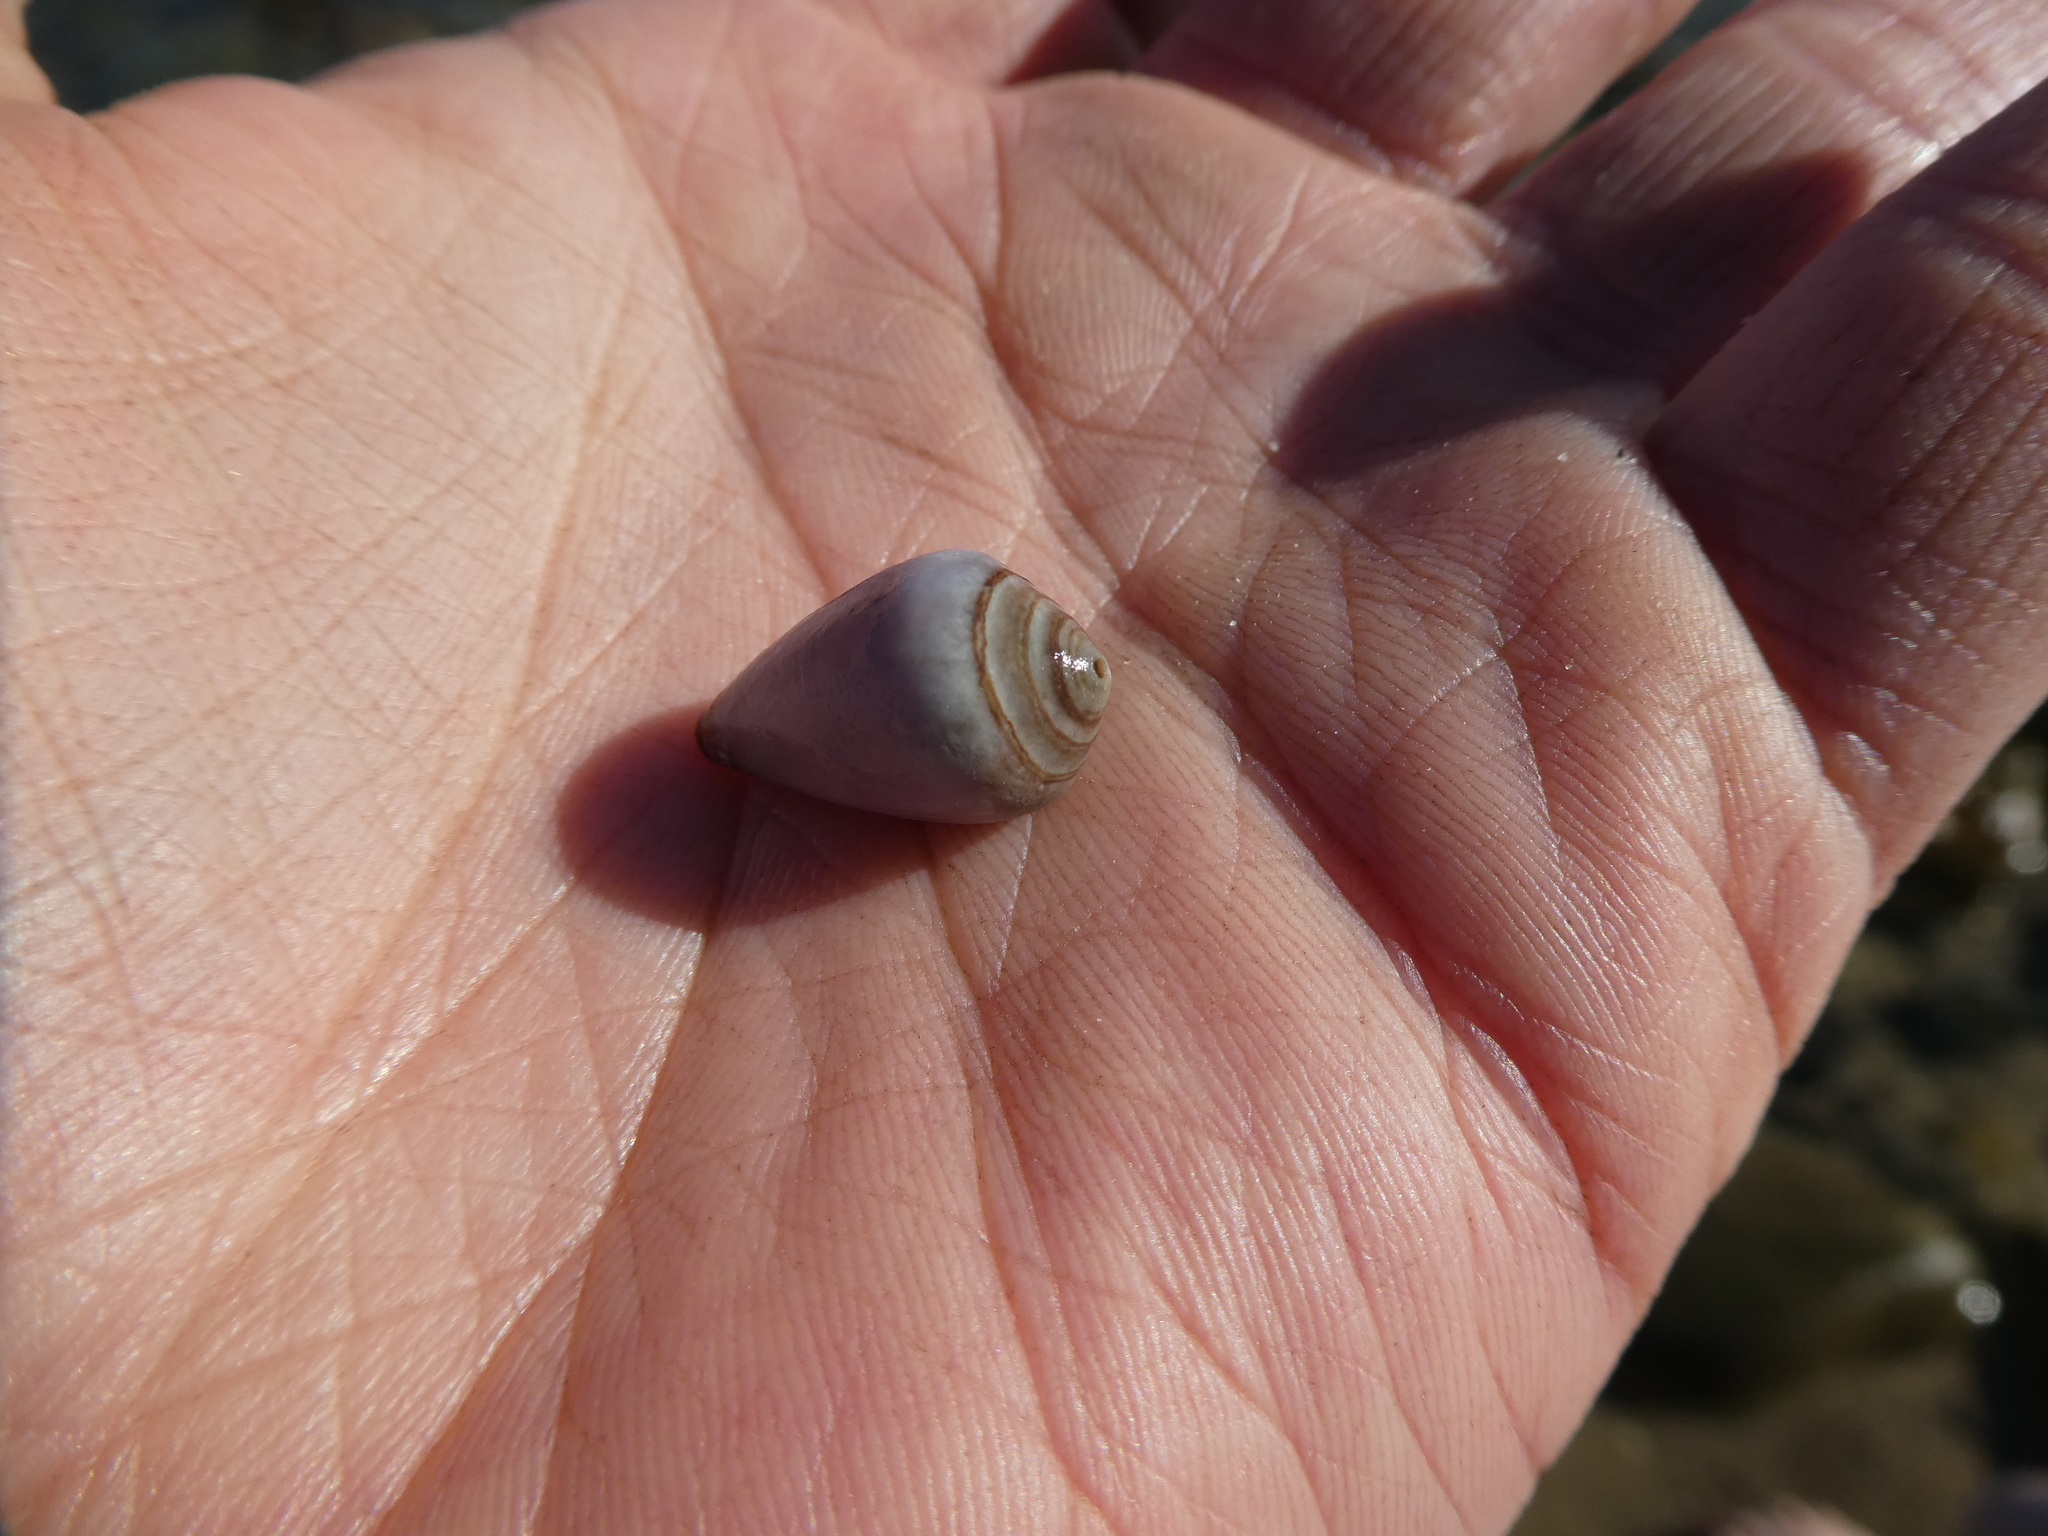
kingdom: Animalia
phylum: Mollusca
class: Gastropoda
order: Neogastropoda
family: Conidae
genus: Californiconus
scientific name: Californiconus californicus
